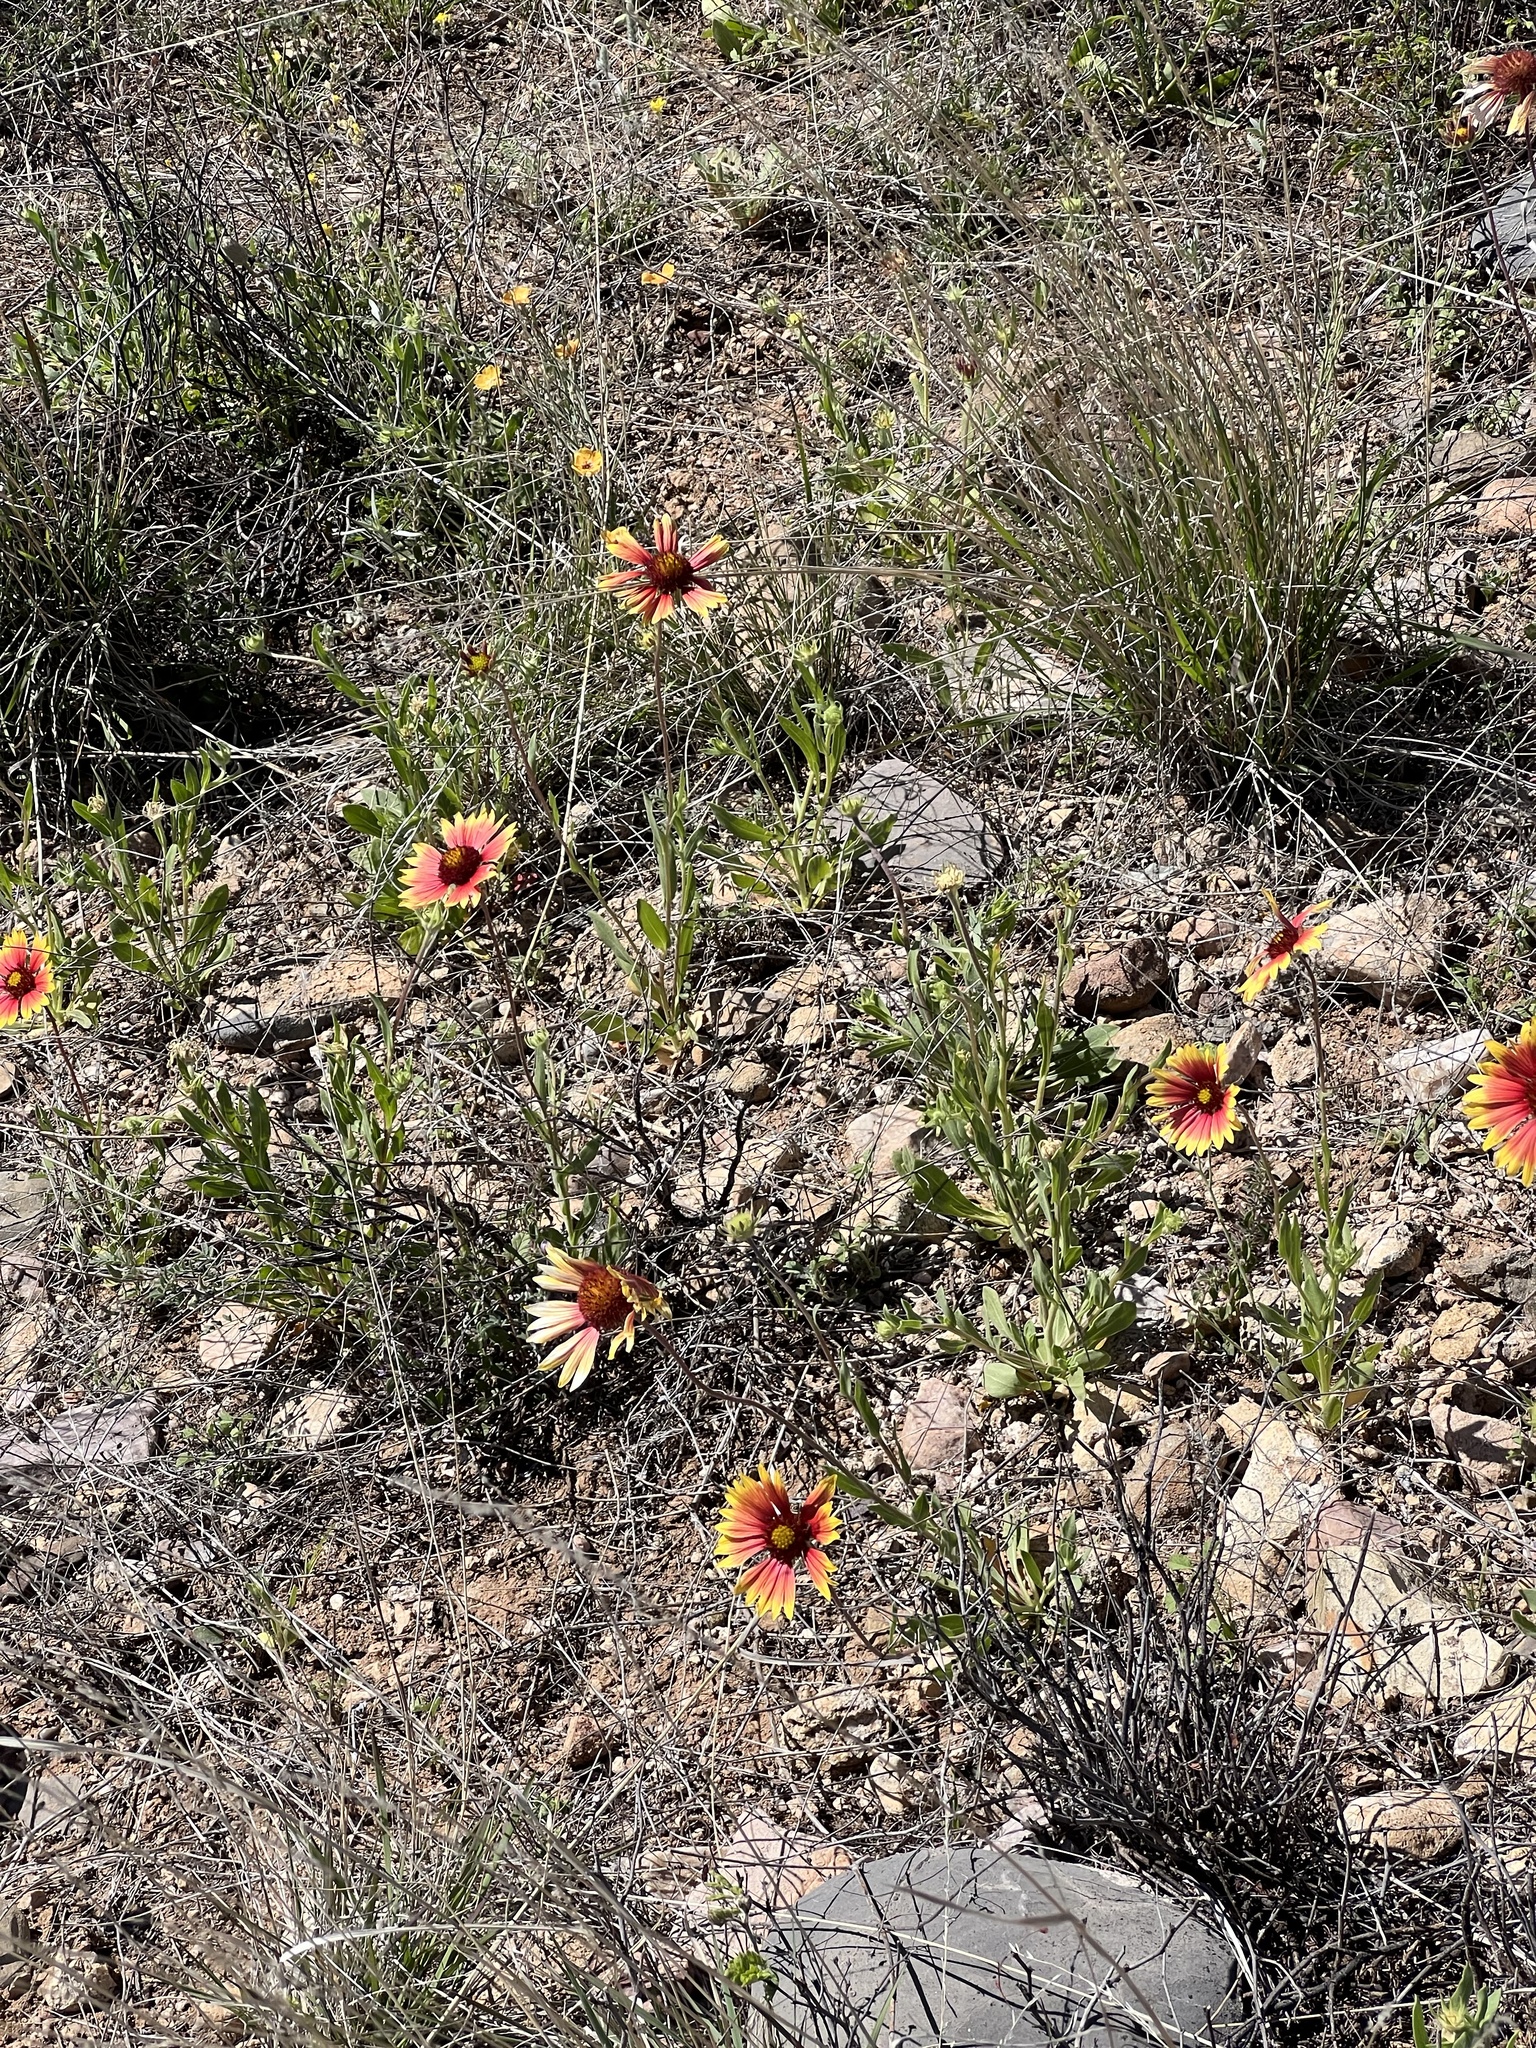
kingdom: Plantae
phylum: Tracheophyta
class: Magnoliopsida
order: Asterales
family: Asteraceae
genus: Gaillardia
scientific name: Gaillardia pulchella
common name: Firewheel
